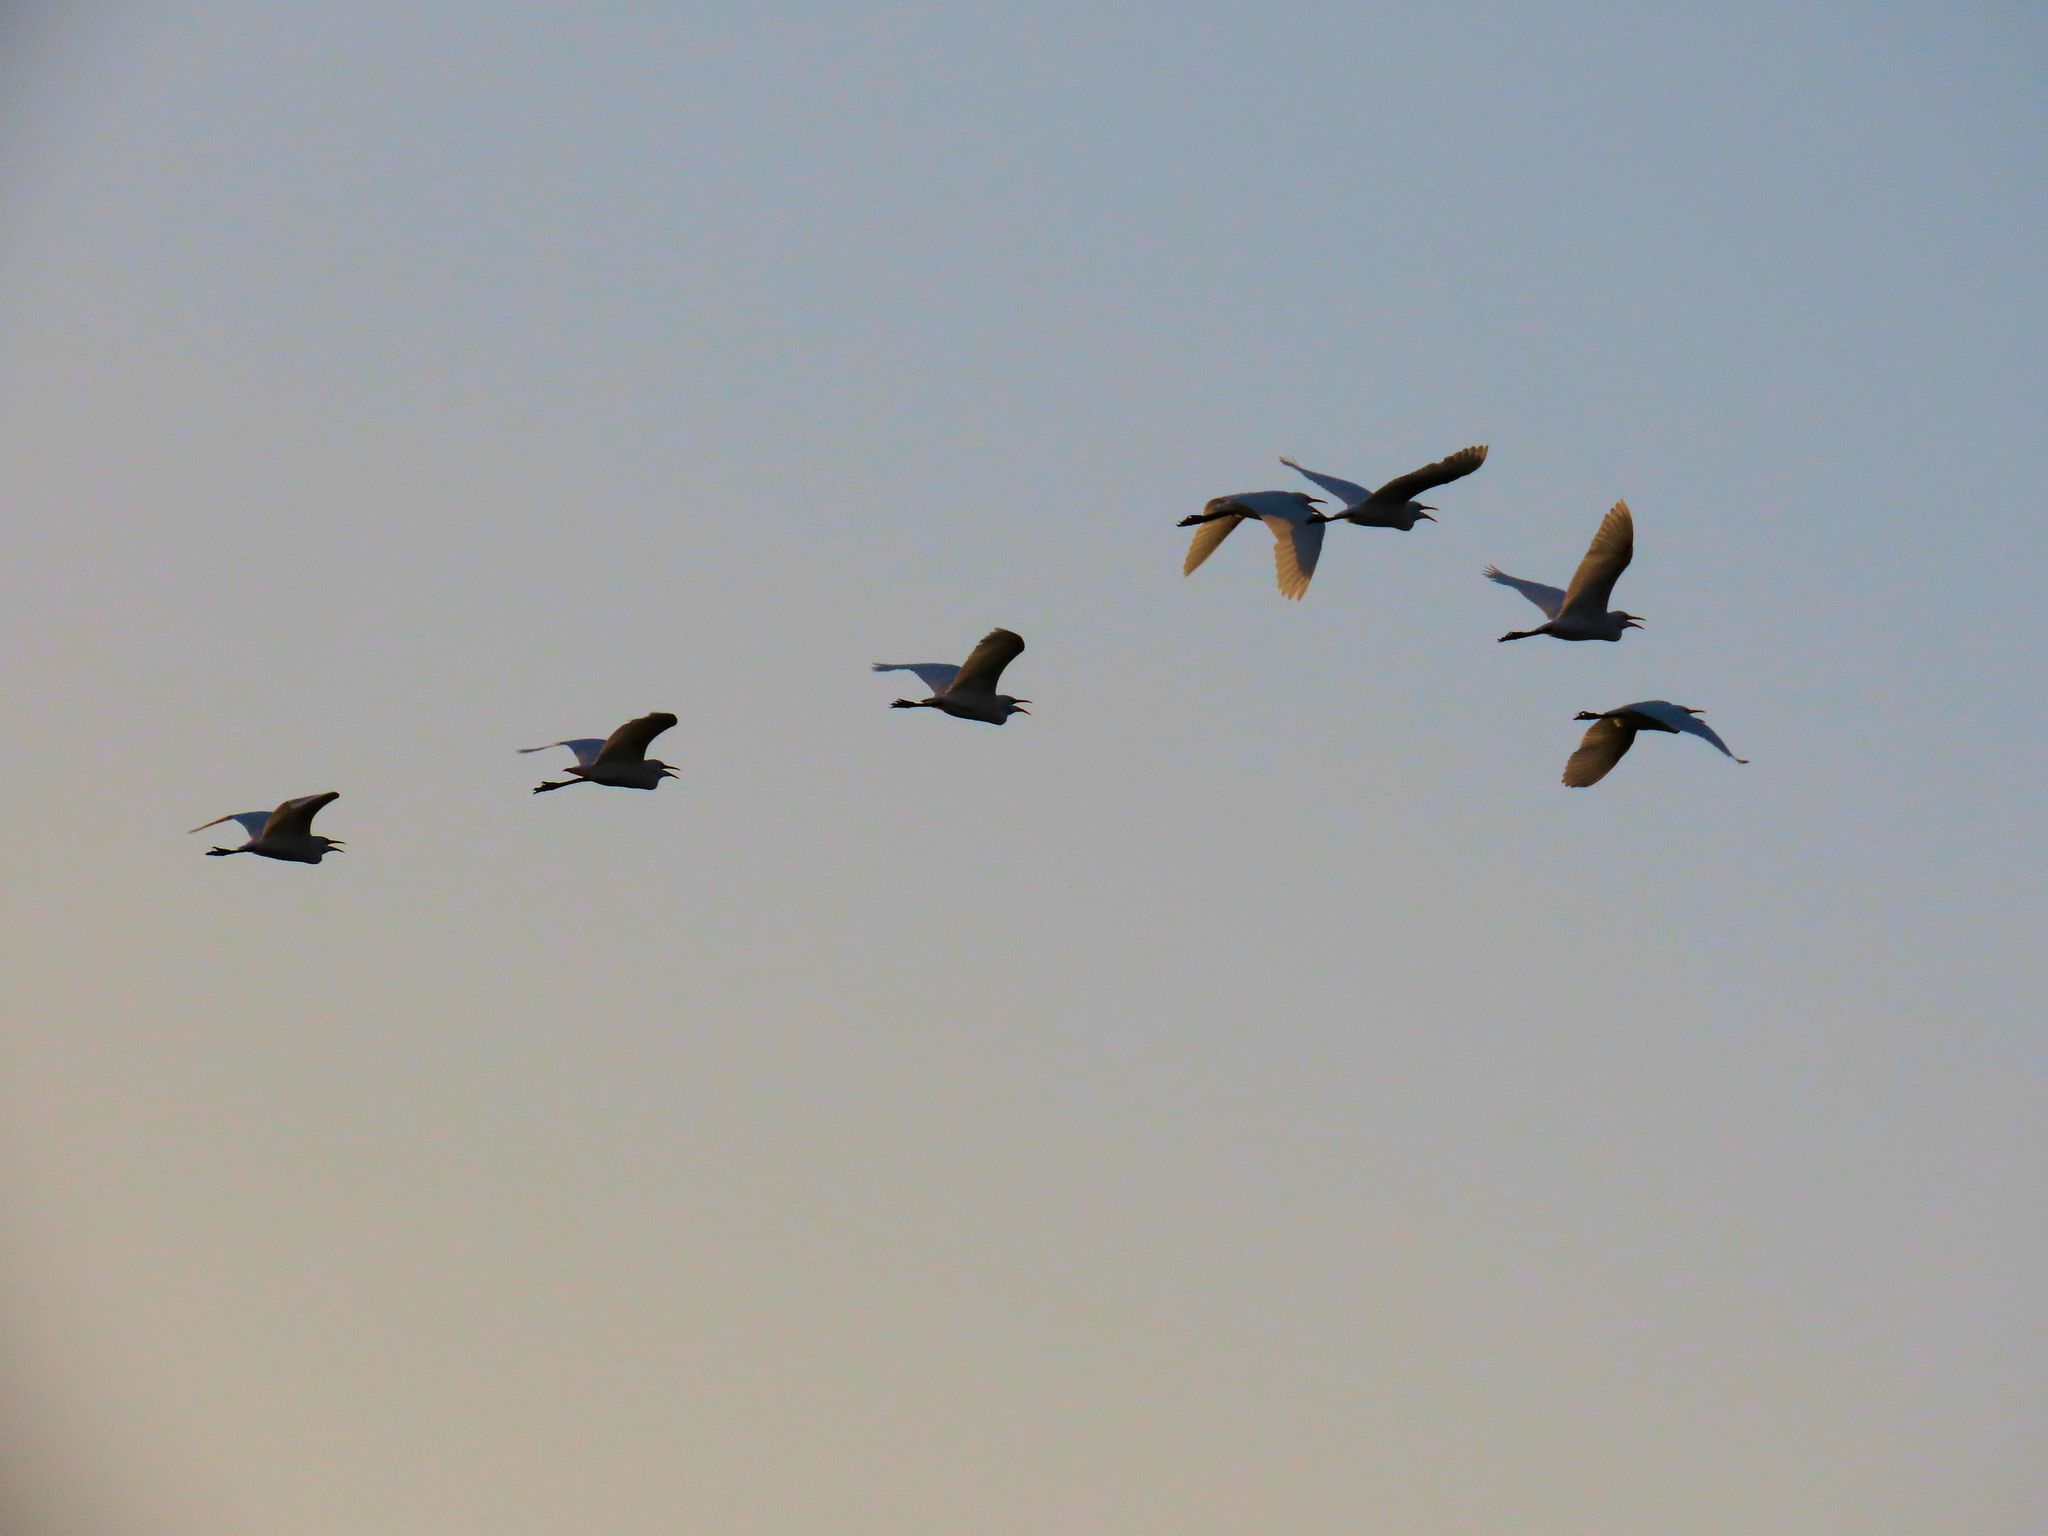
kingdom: Animalia
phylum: Chordata
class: Aves
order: Pelecaniformes
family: Ardeidae
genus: Bubulcus
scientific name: Bubulcus ibis
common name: Cattle egret
